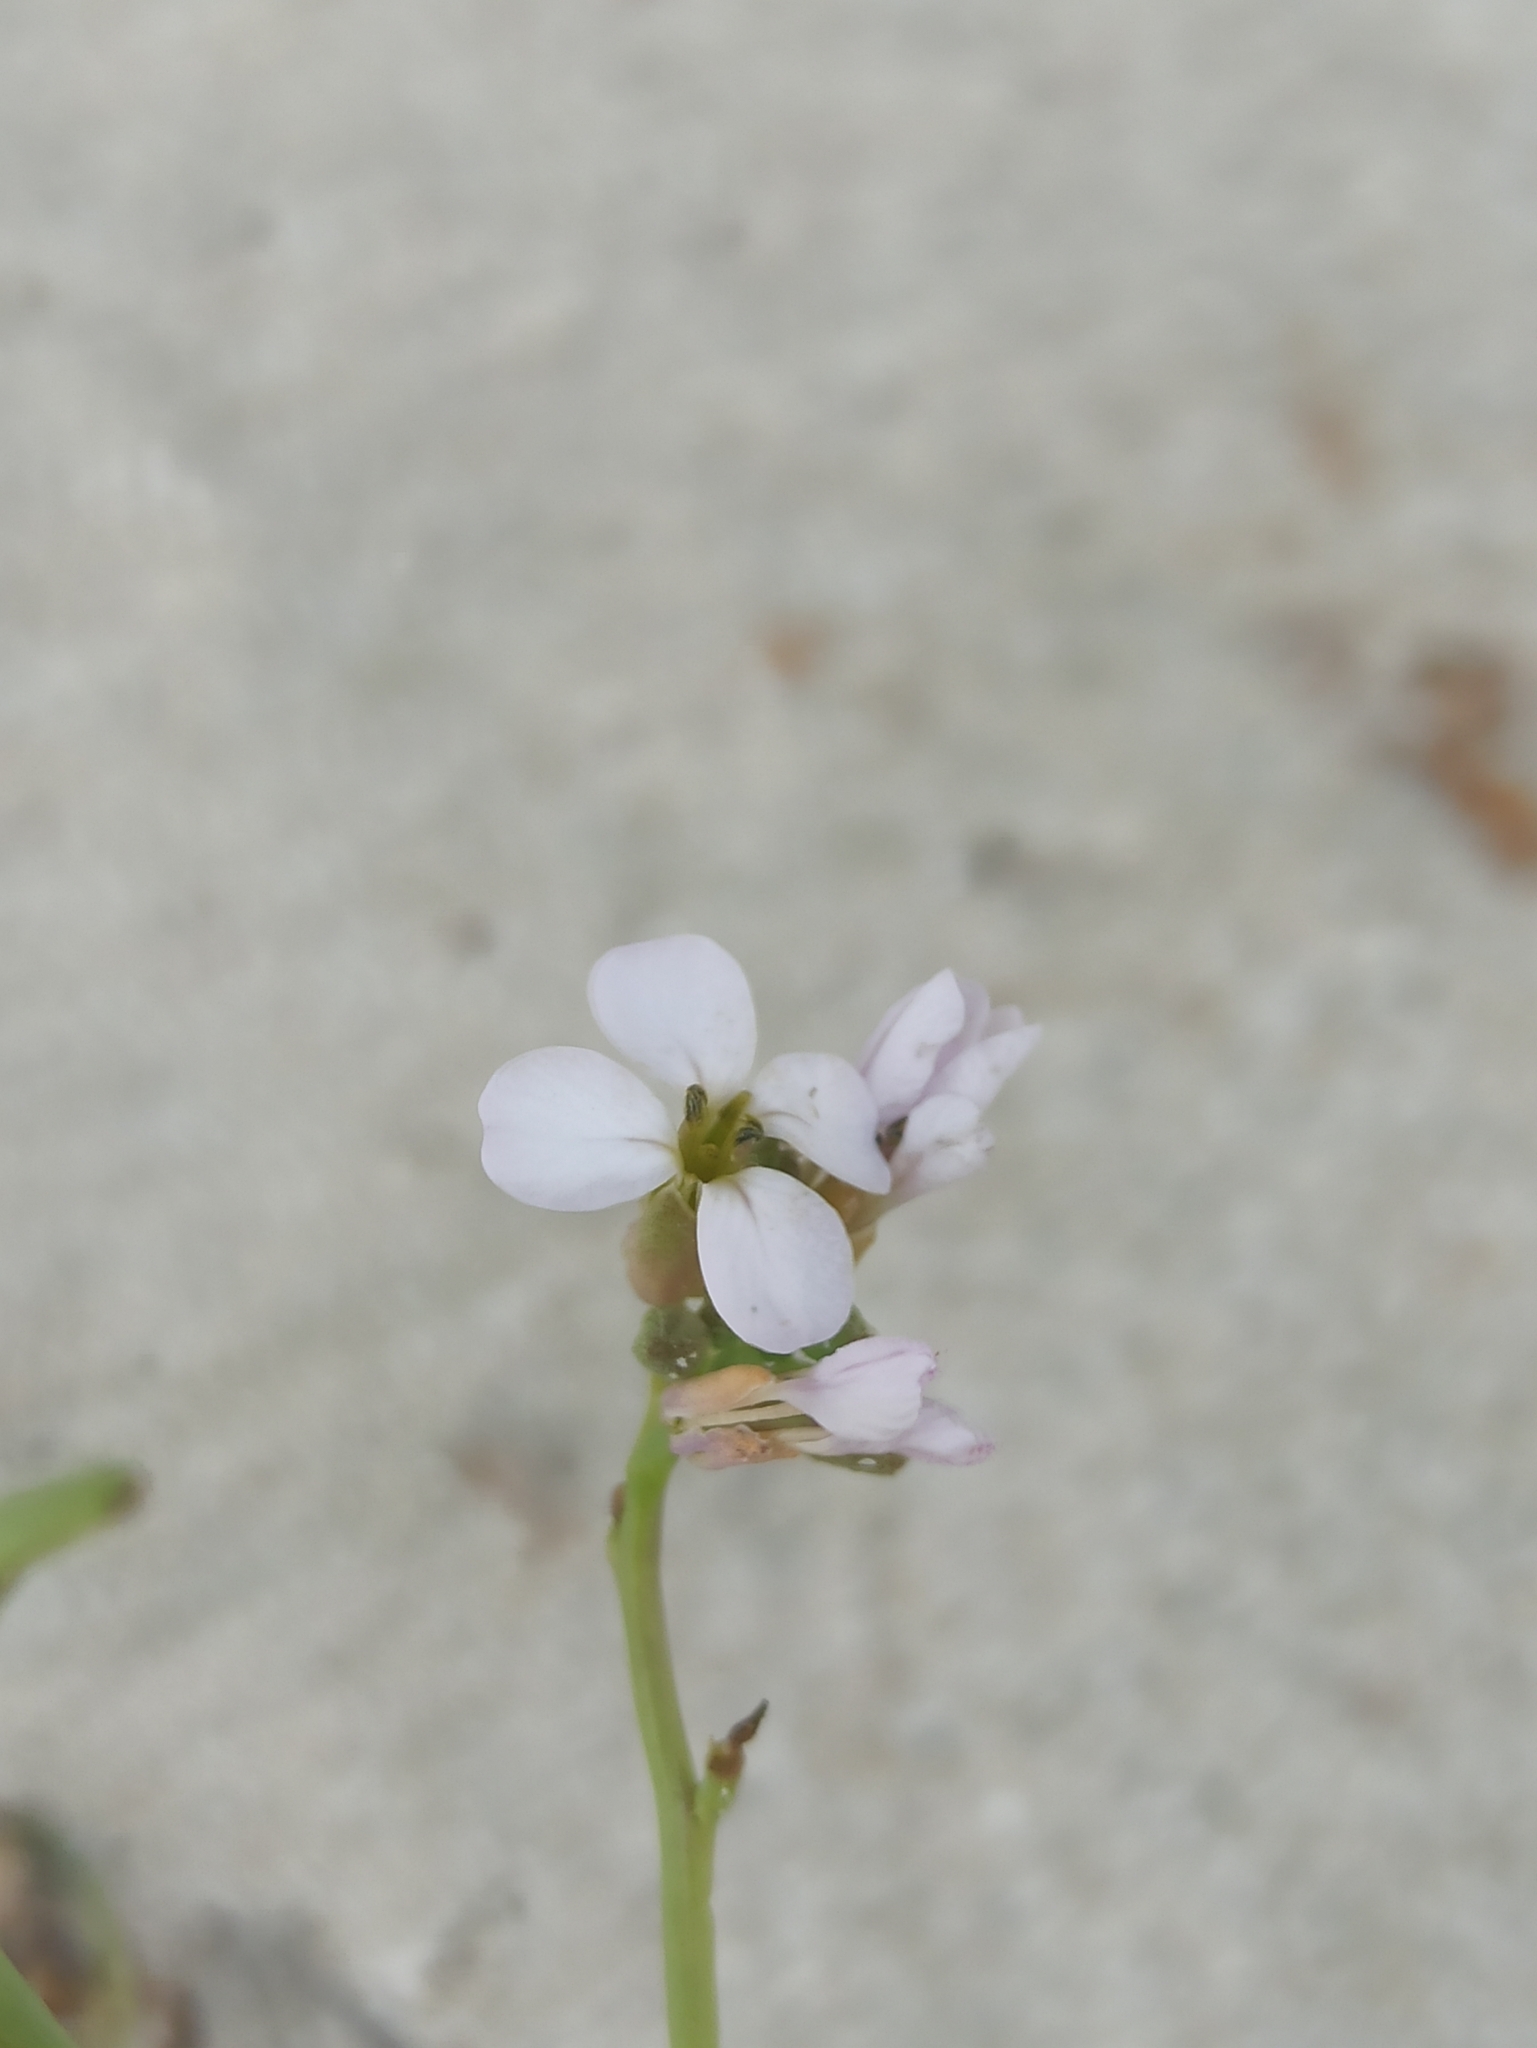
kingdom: Plantae
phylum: Tracheophyta
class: Magnoliopsida
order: Brassicales
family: Brassicaceae
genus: Cakile
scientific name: Cakile maritima
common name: Sea rocket
